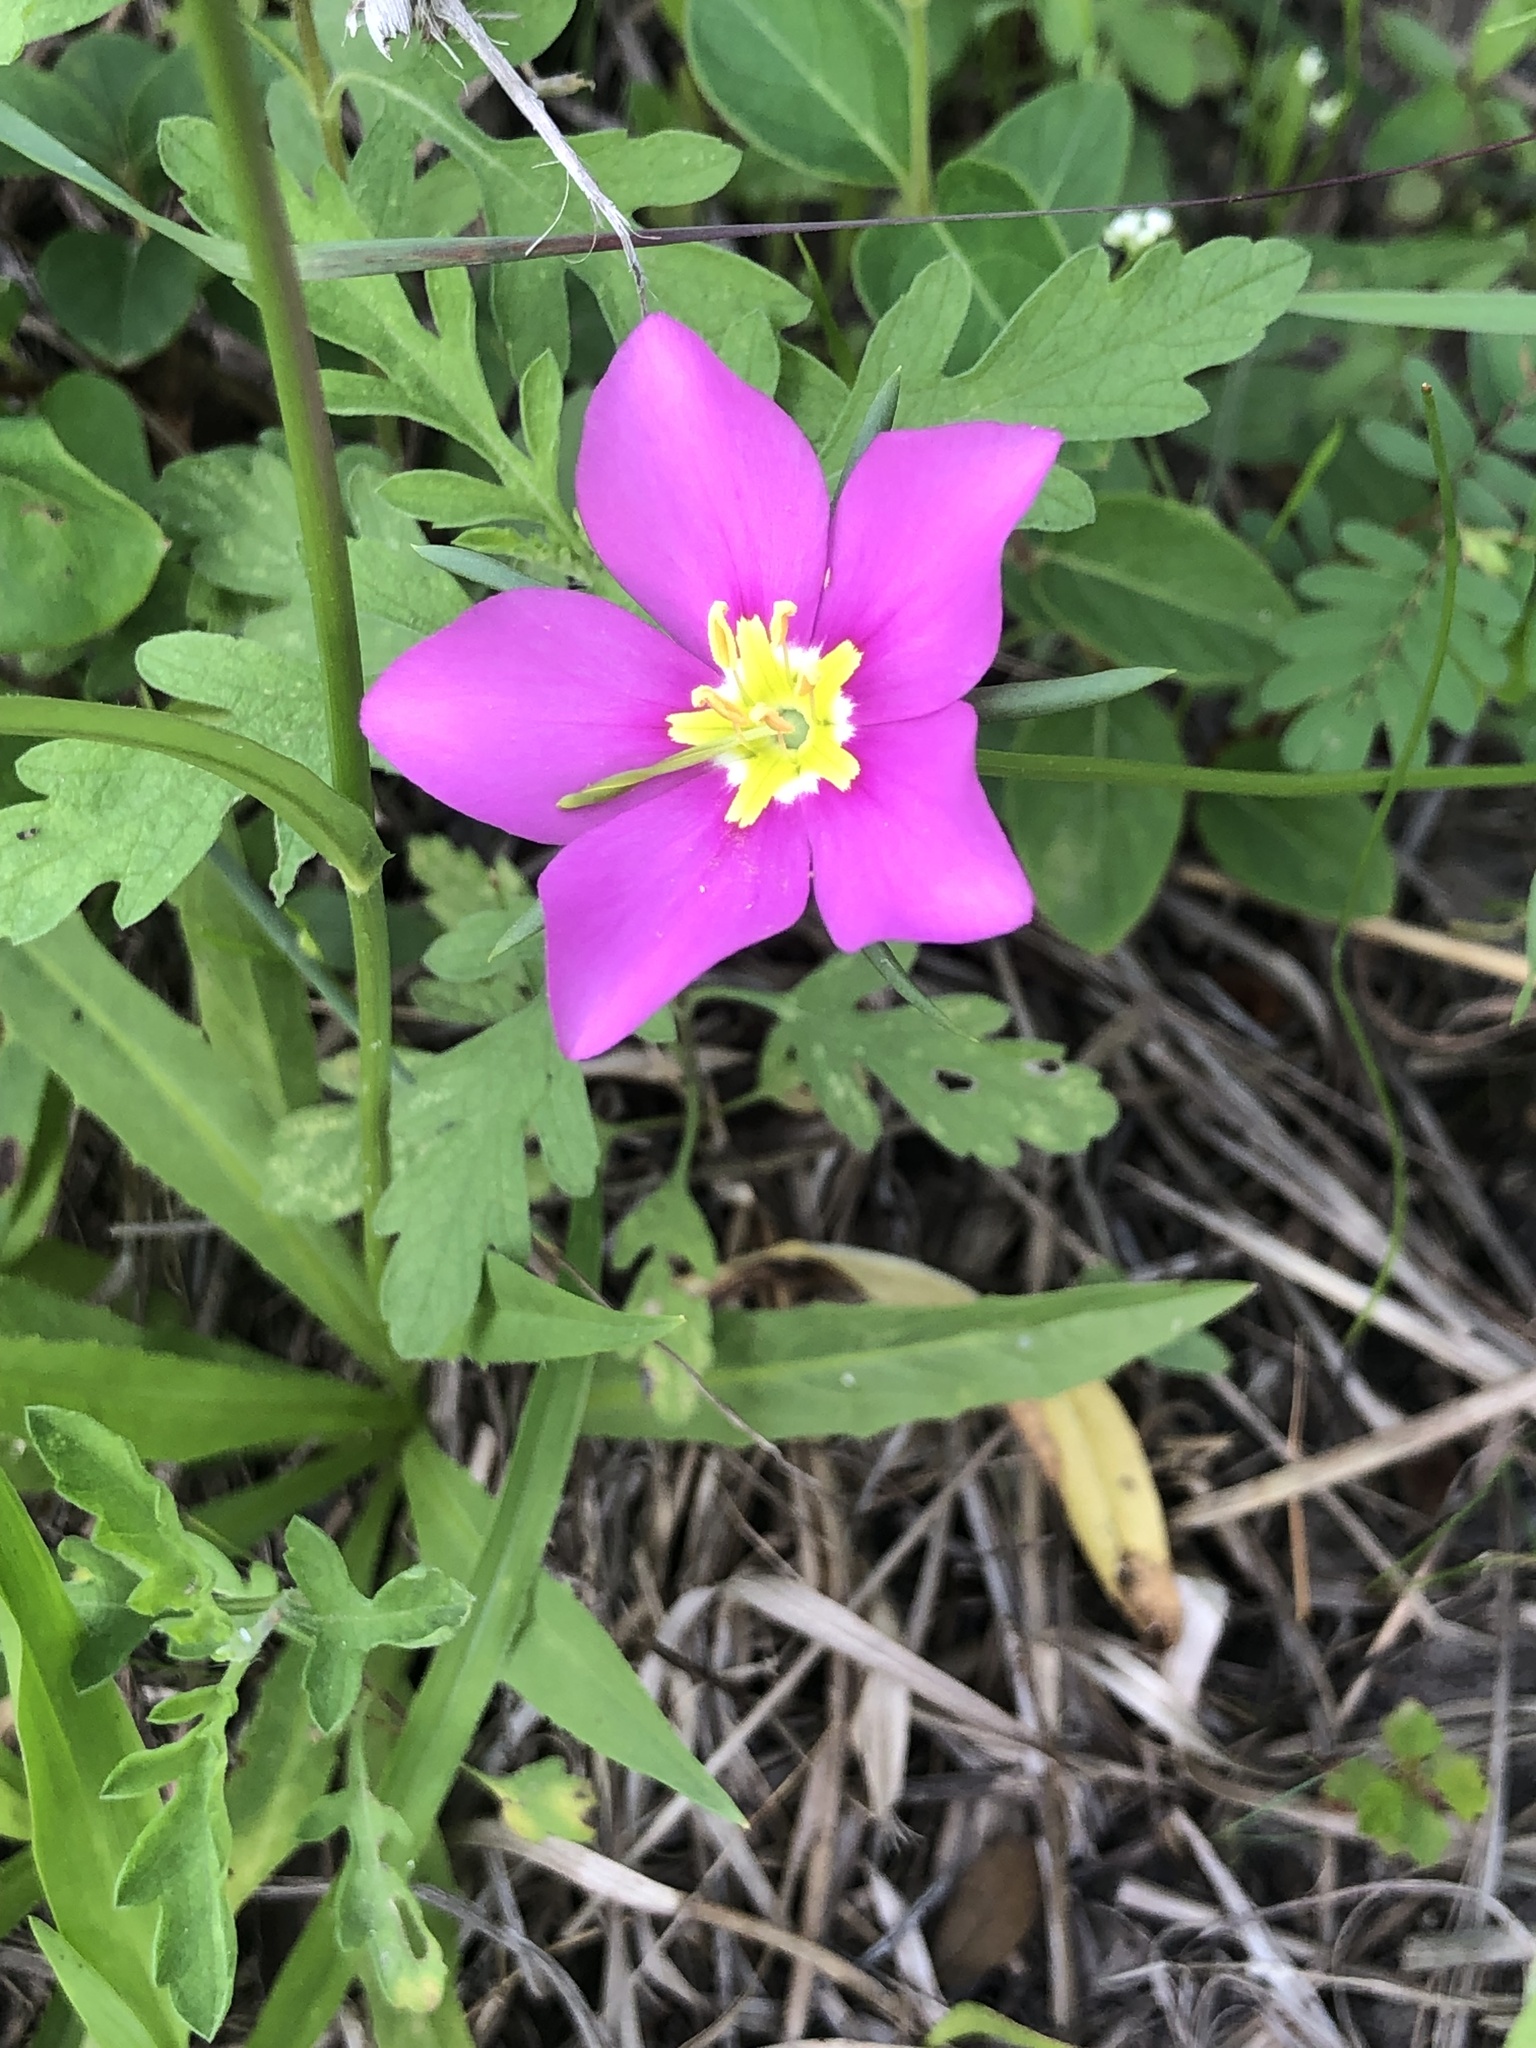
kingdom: Plantae
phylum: Tracheophyta
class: Magnoliopsida
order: Gentianales
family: Gentianaceae
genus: Sabatia
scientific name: Sabatia campestris
